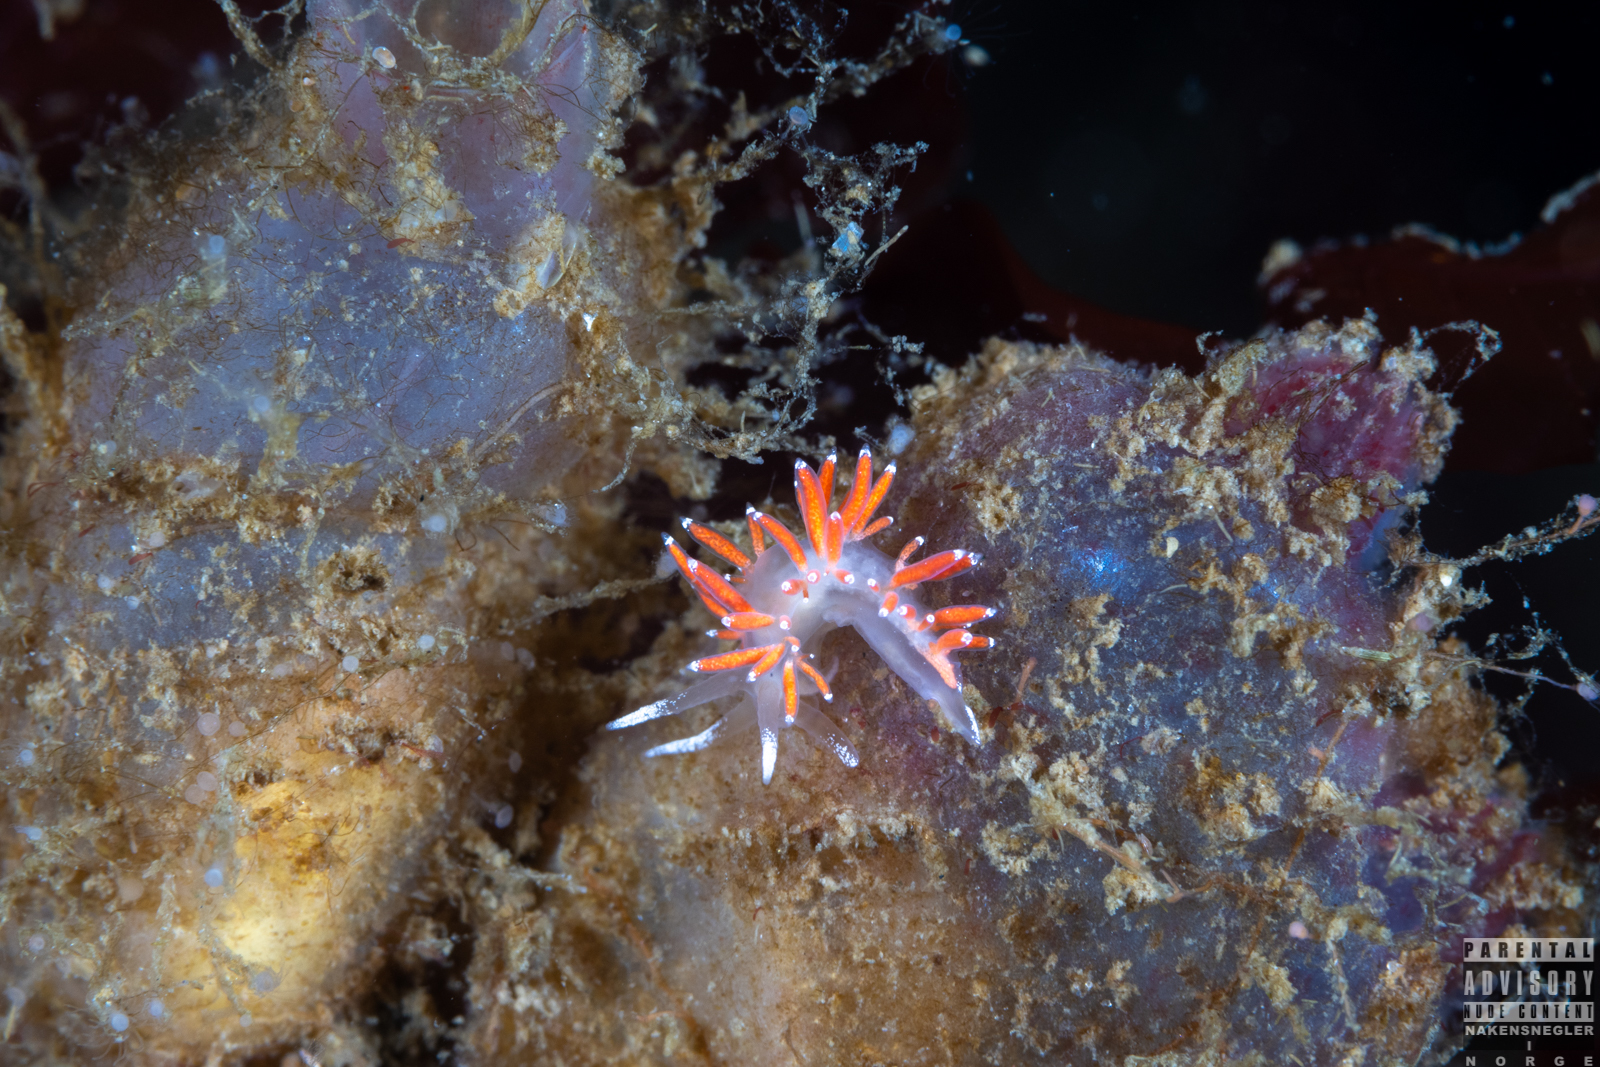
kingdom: Animalia
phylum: Mollusca
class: Gastropoda
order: Nudibranchia
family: Coryphellidae
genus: Coryphella
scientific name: Coryphella gracilis
